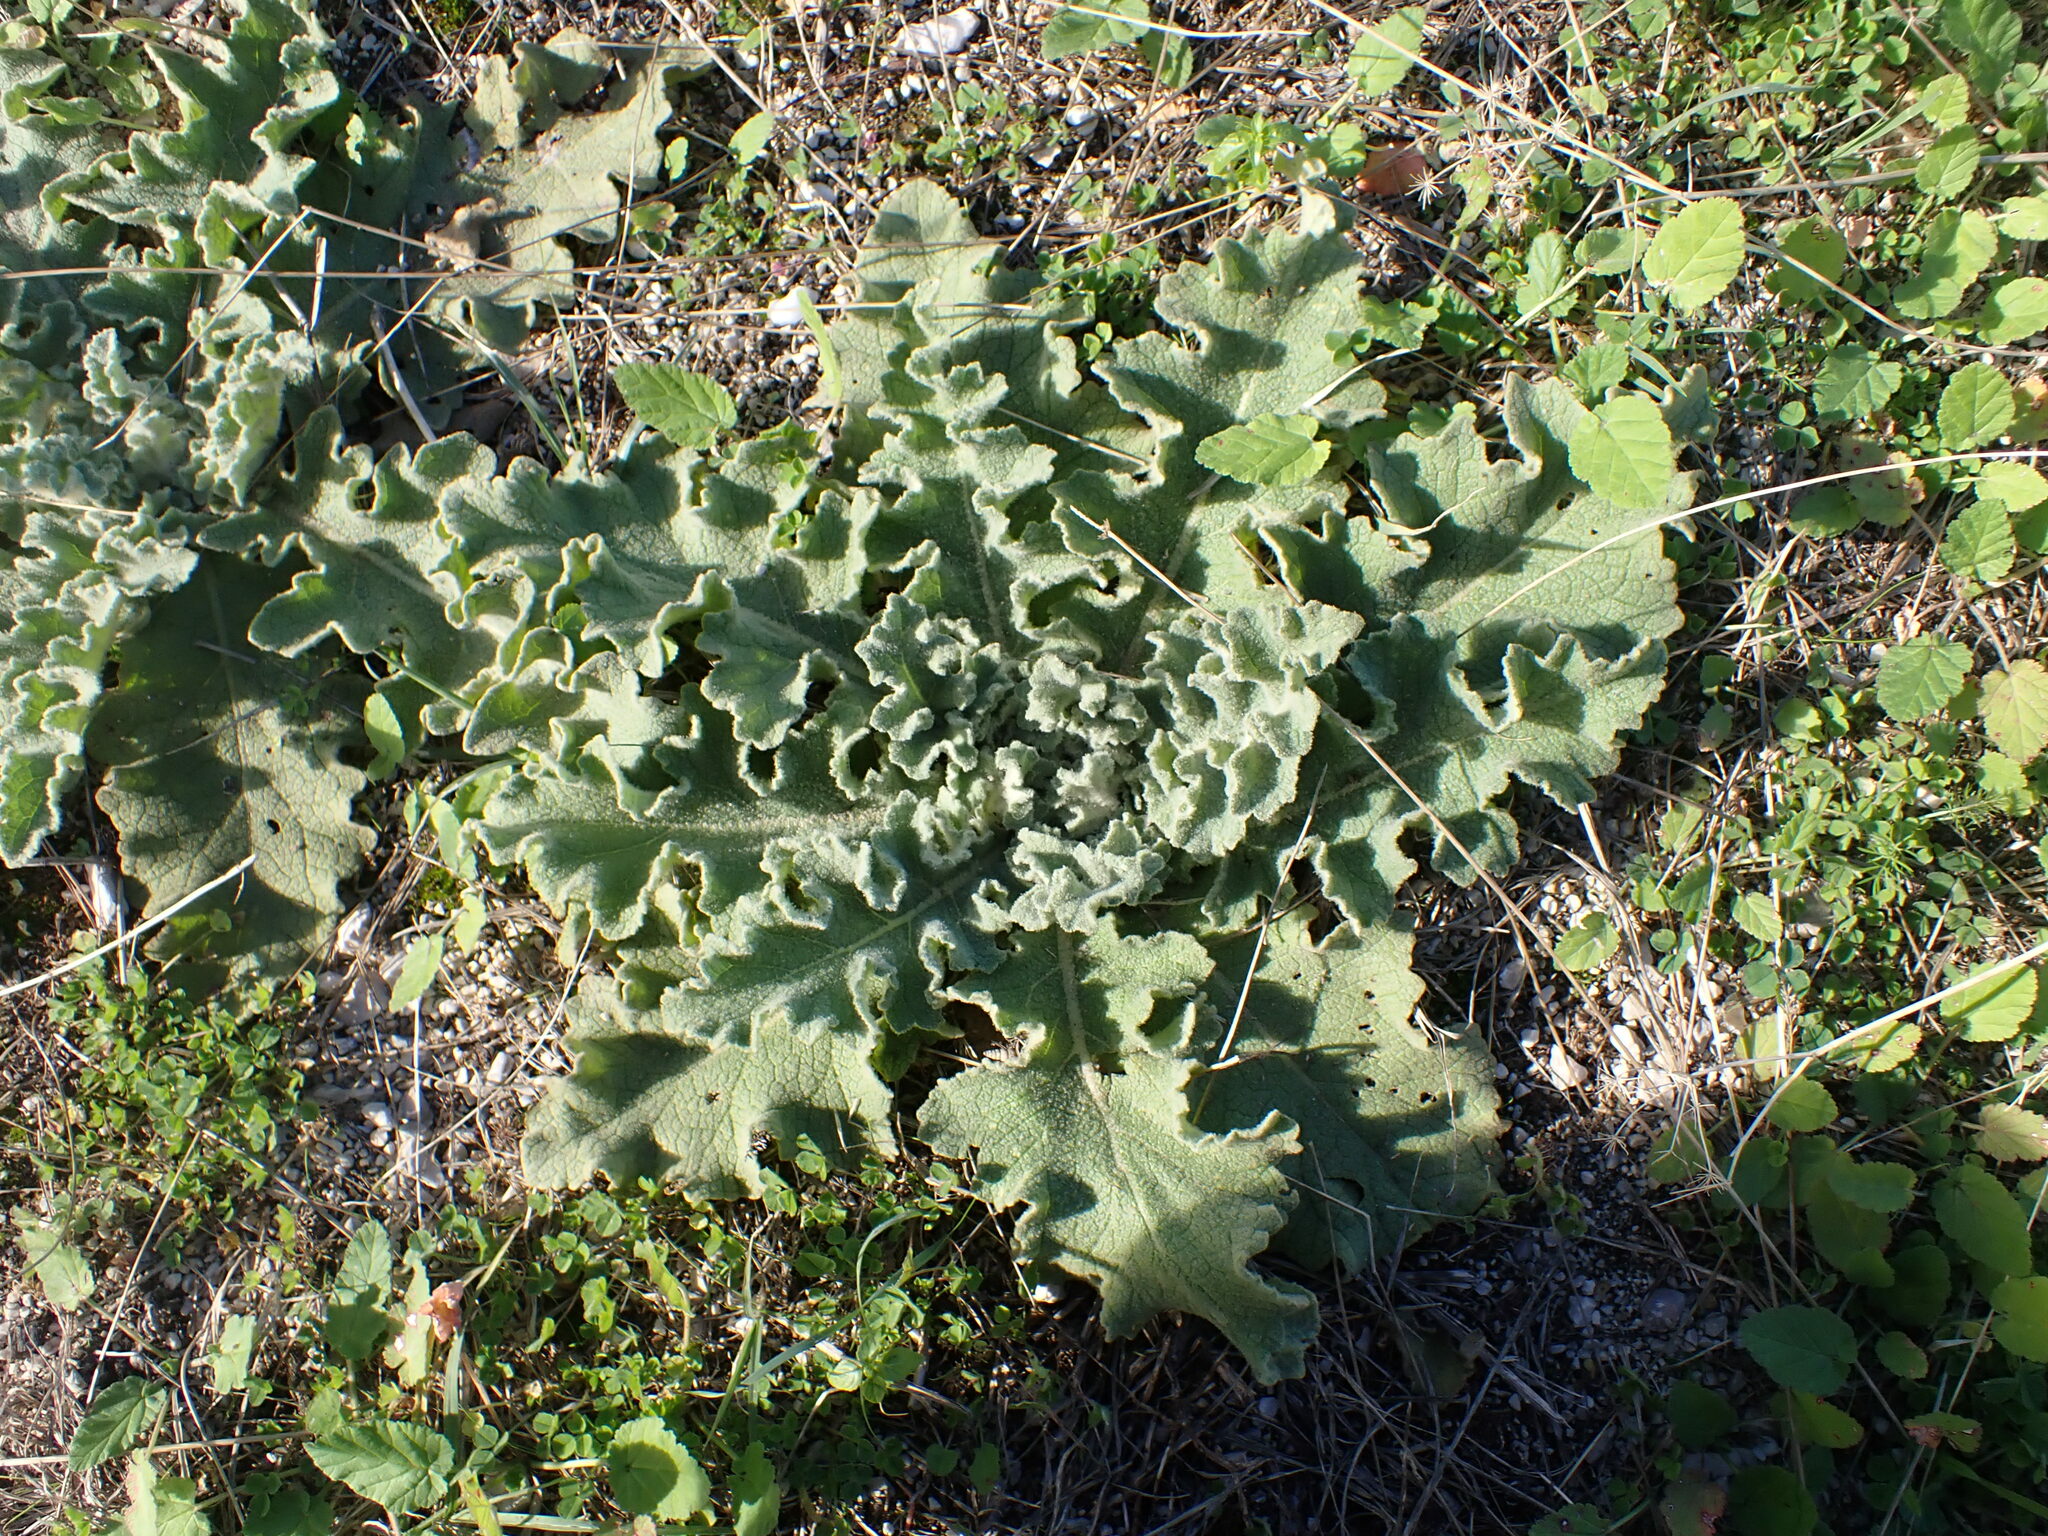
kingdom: Plantae
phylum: Tracheophyta
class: Magnoliopsida
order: Lamiales
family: Scrophulariaceae
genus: Verbascum
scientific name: Verbascum sinuatum
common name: Wavyleaf mullein
